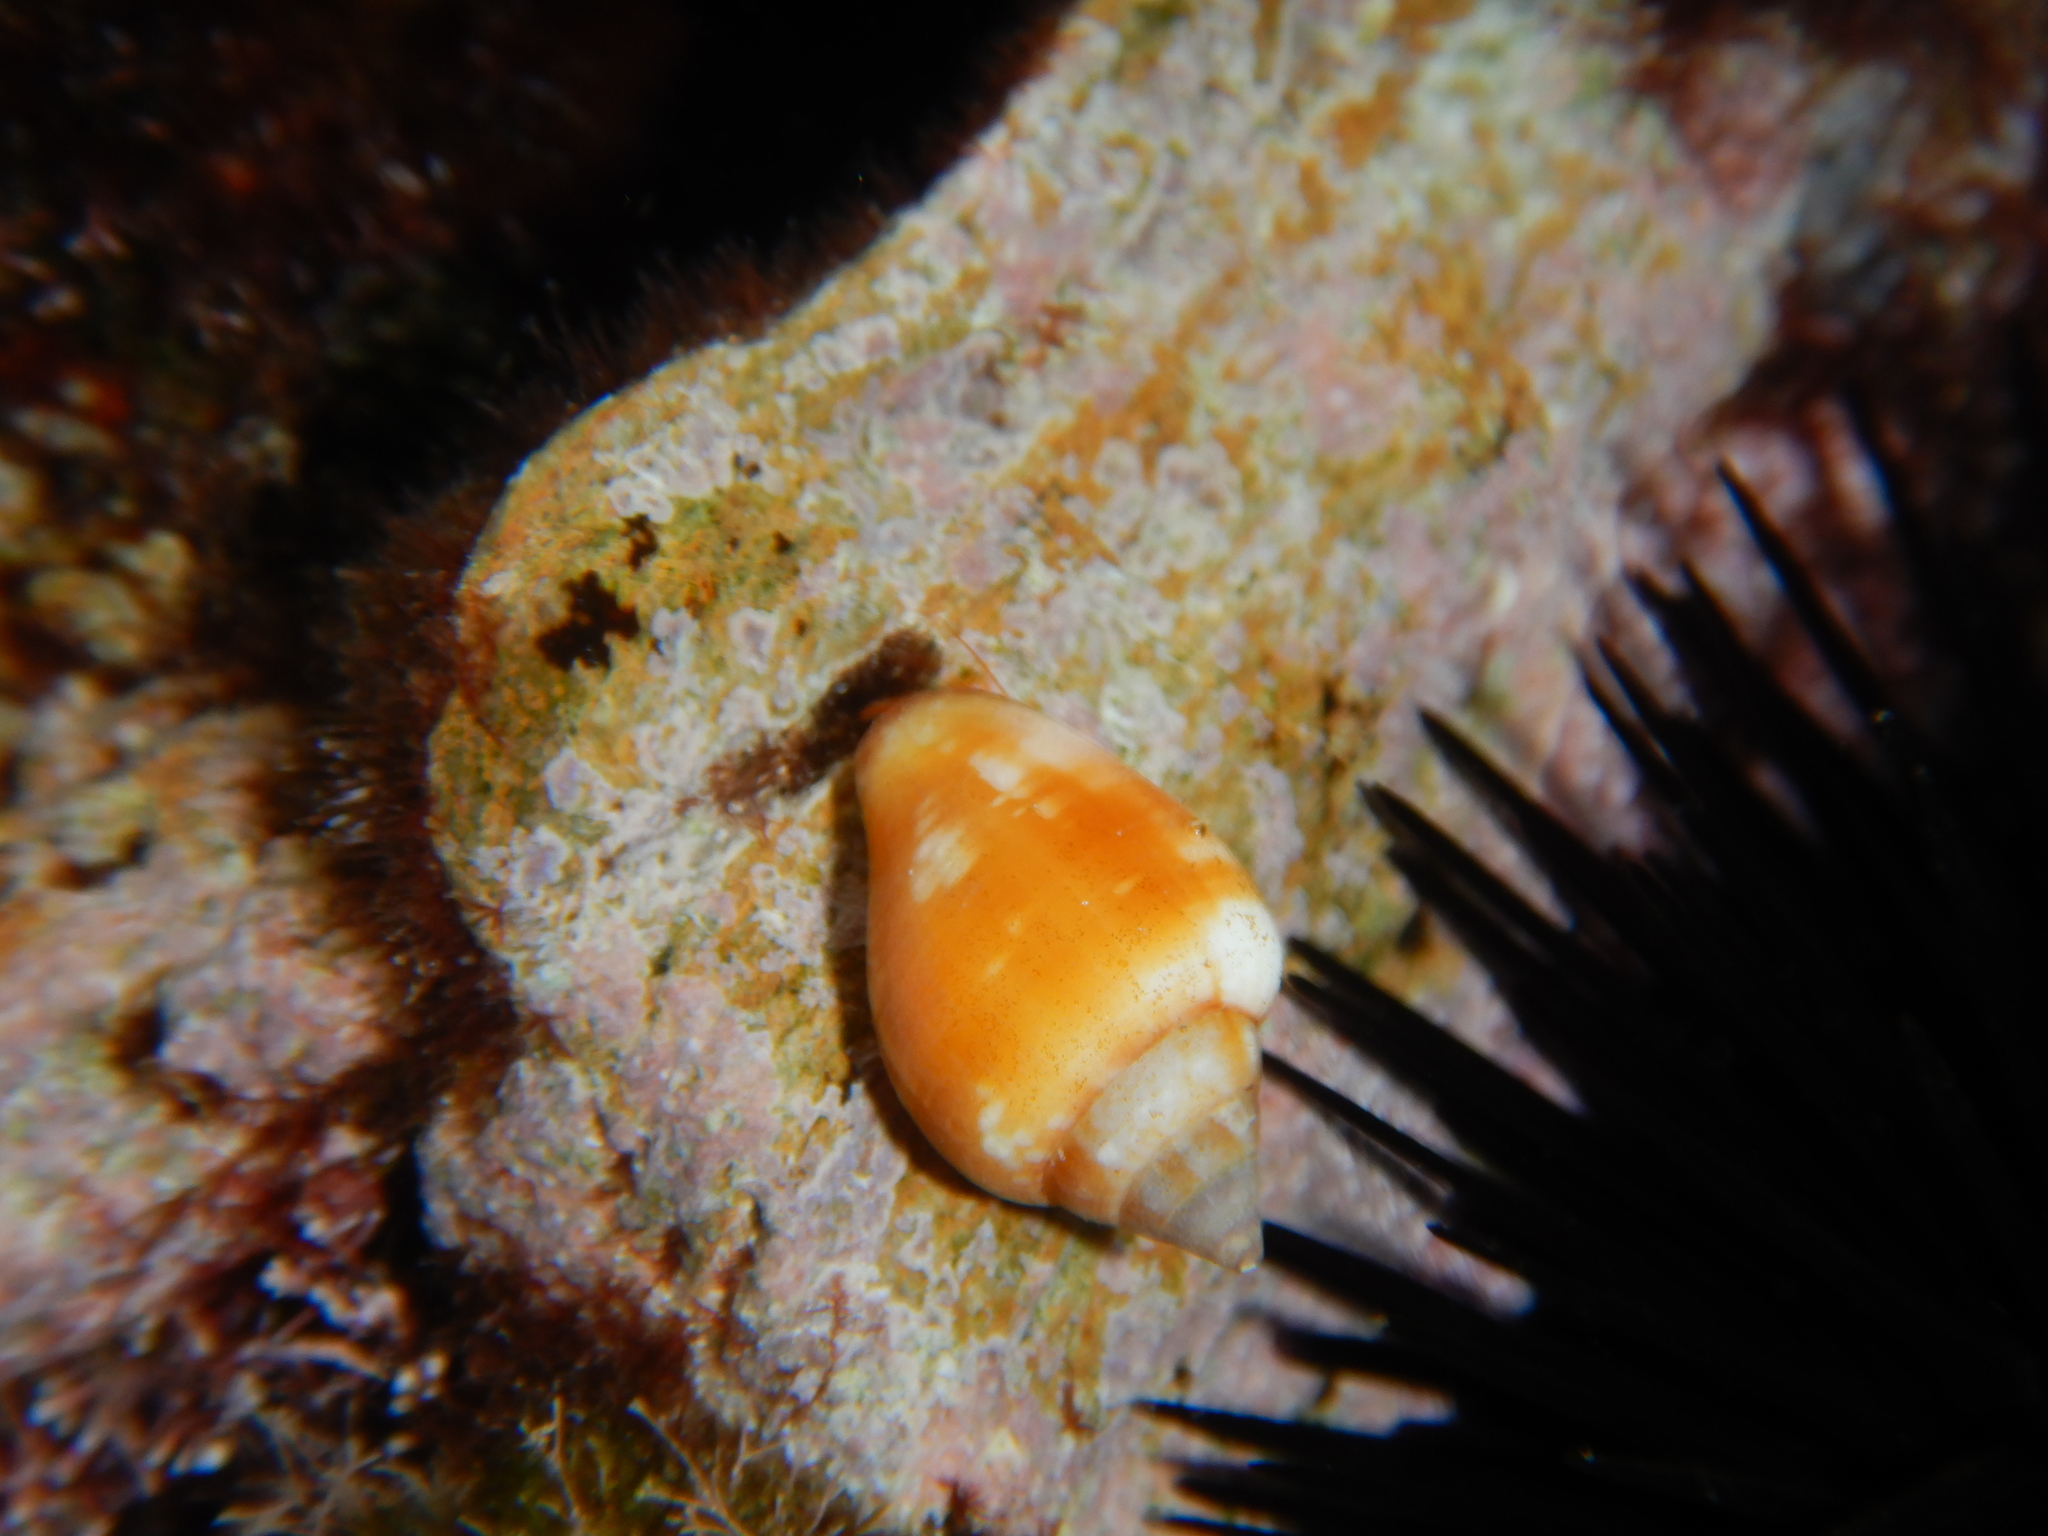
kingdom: Animalia
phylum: Mollusca
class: Gastropoda
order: Neogastropoda
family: Columbellidae
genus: Columbella
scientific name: Columbella rustica
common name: Rustic dove shell
